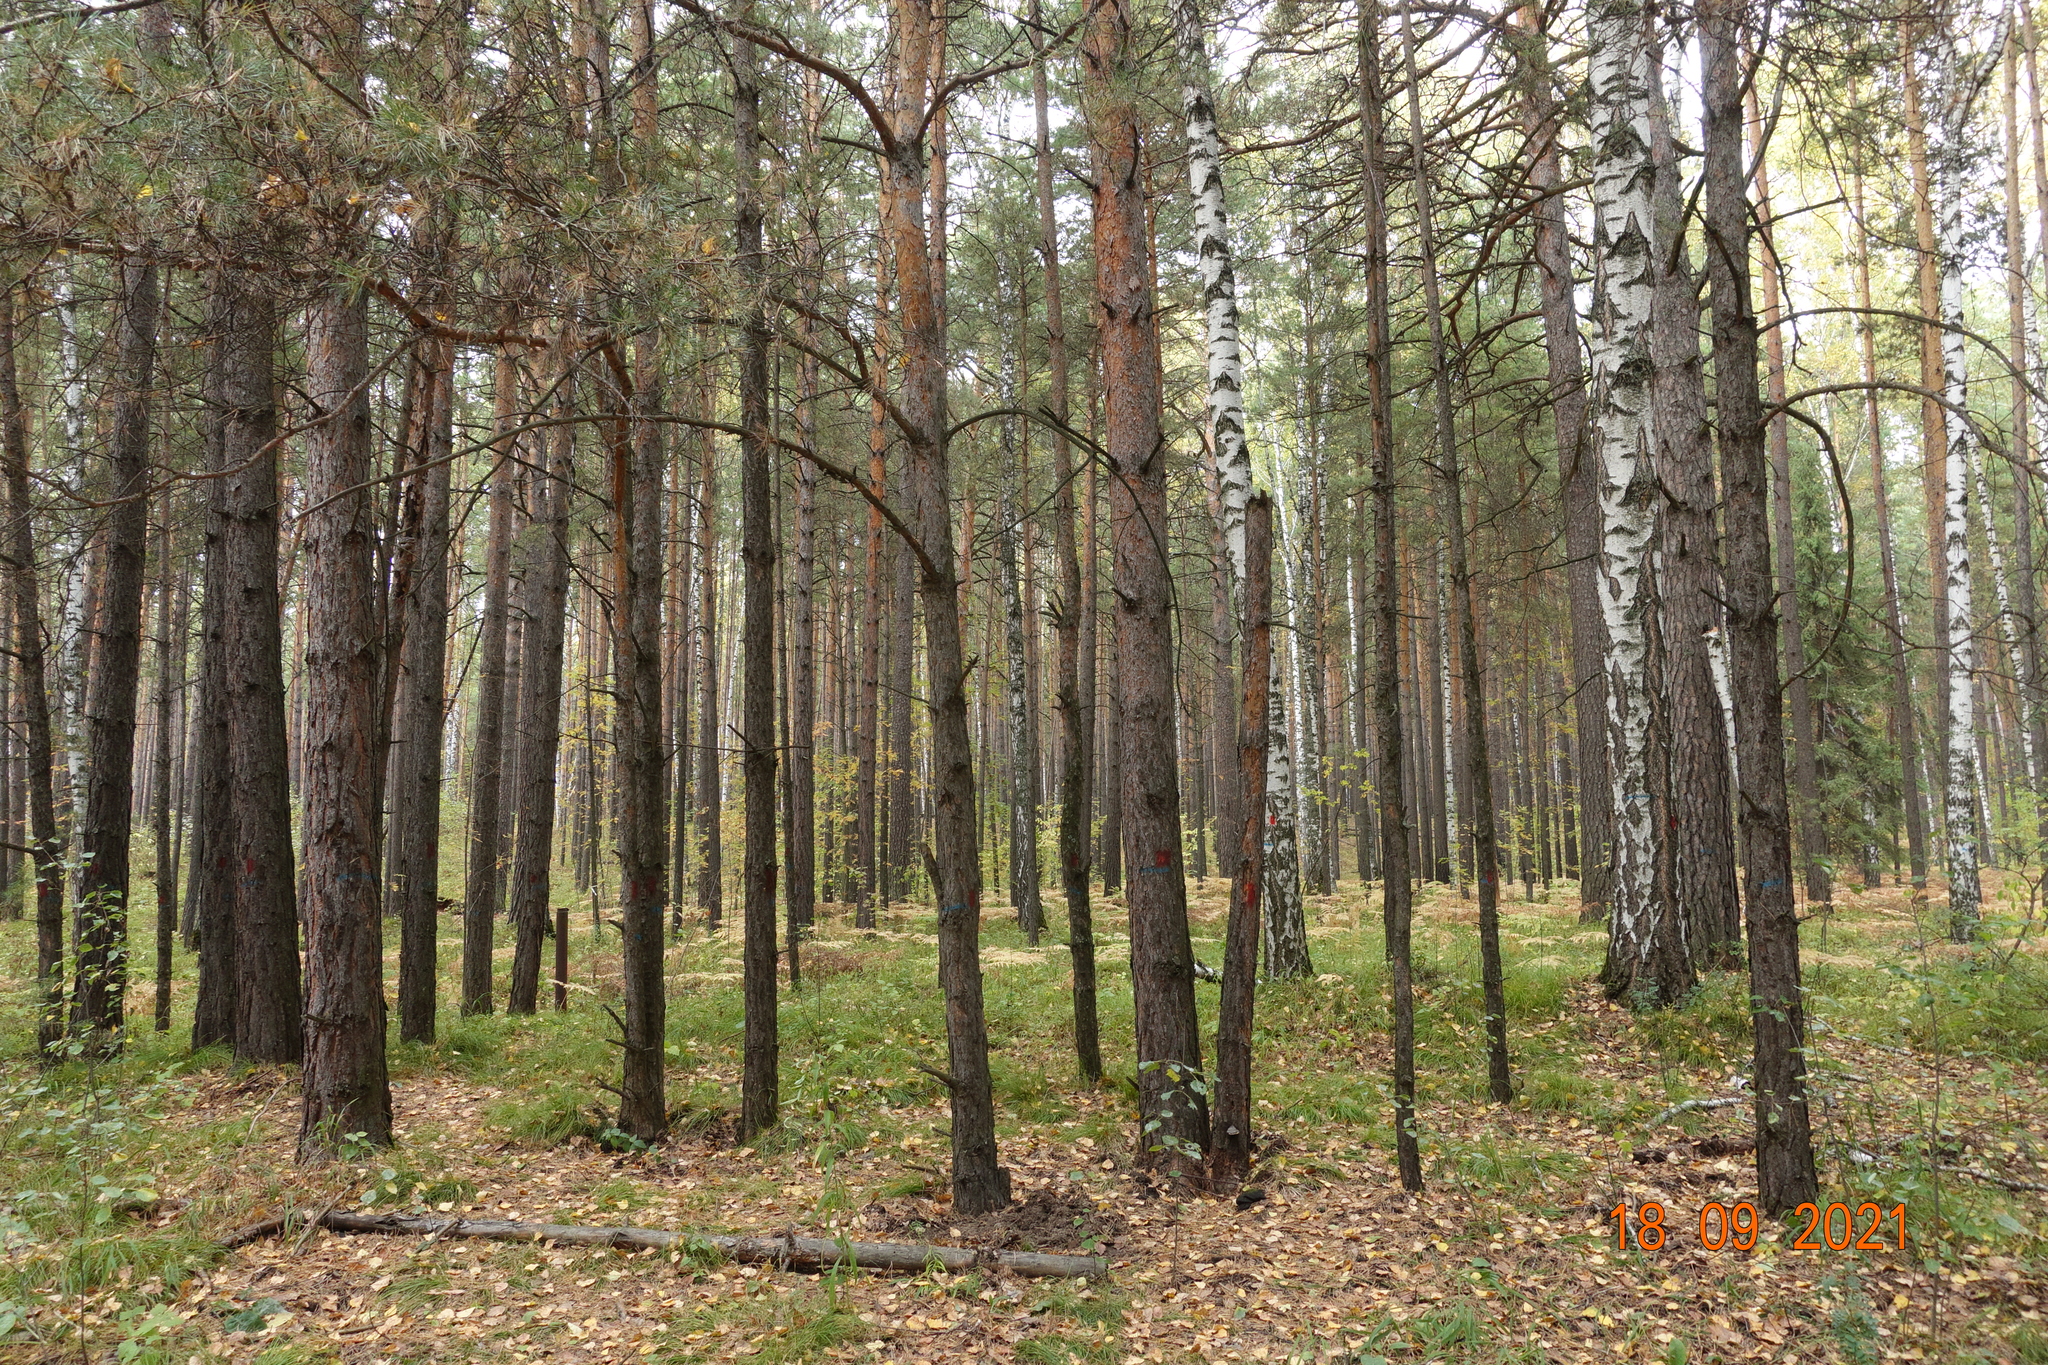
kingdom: Plantae
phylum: Tracheophyta
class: Pinopsida
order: Pinales
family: Pinaceae
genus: Pinus
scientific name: Pinus sylvestris
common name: Scots pine
